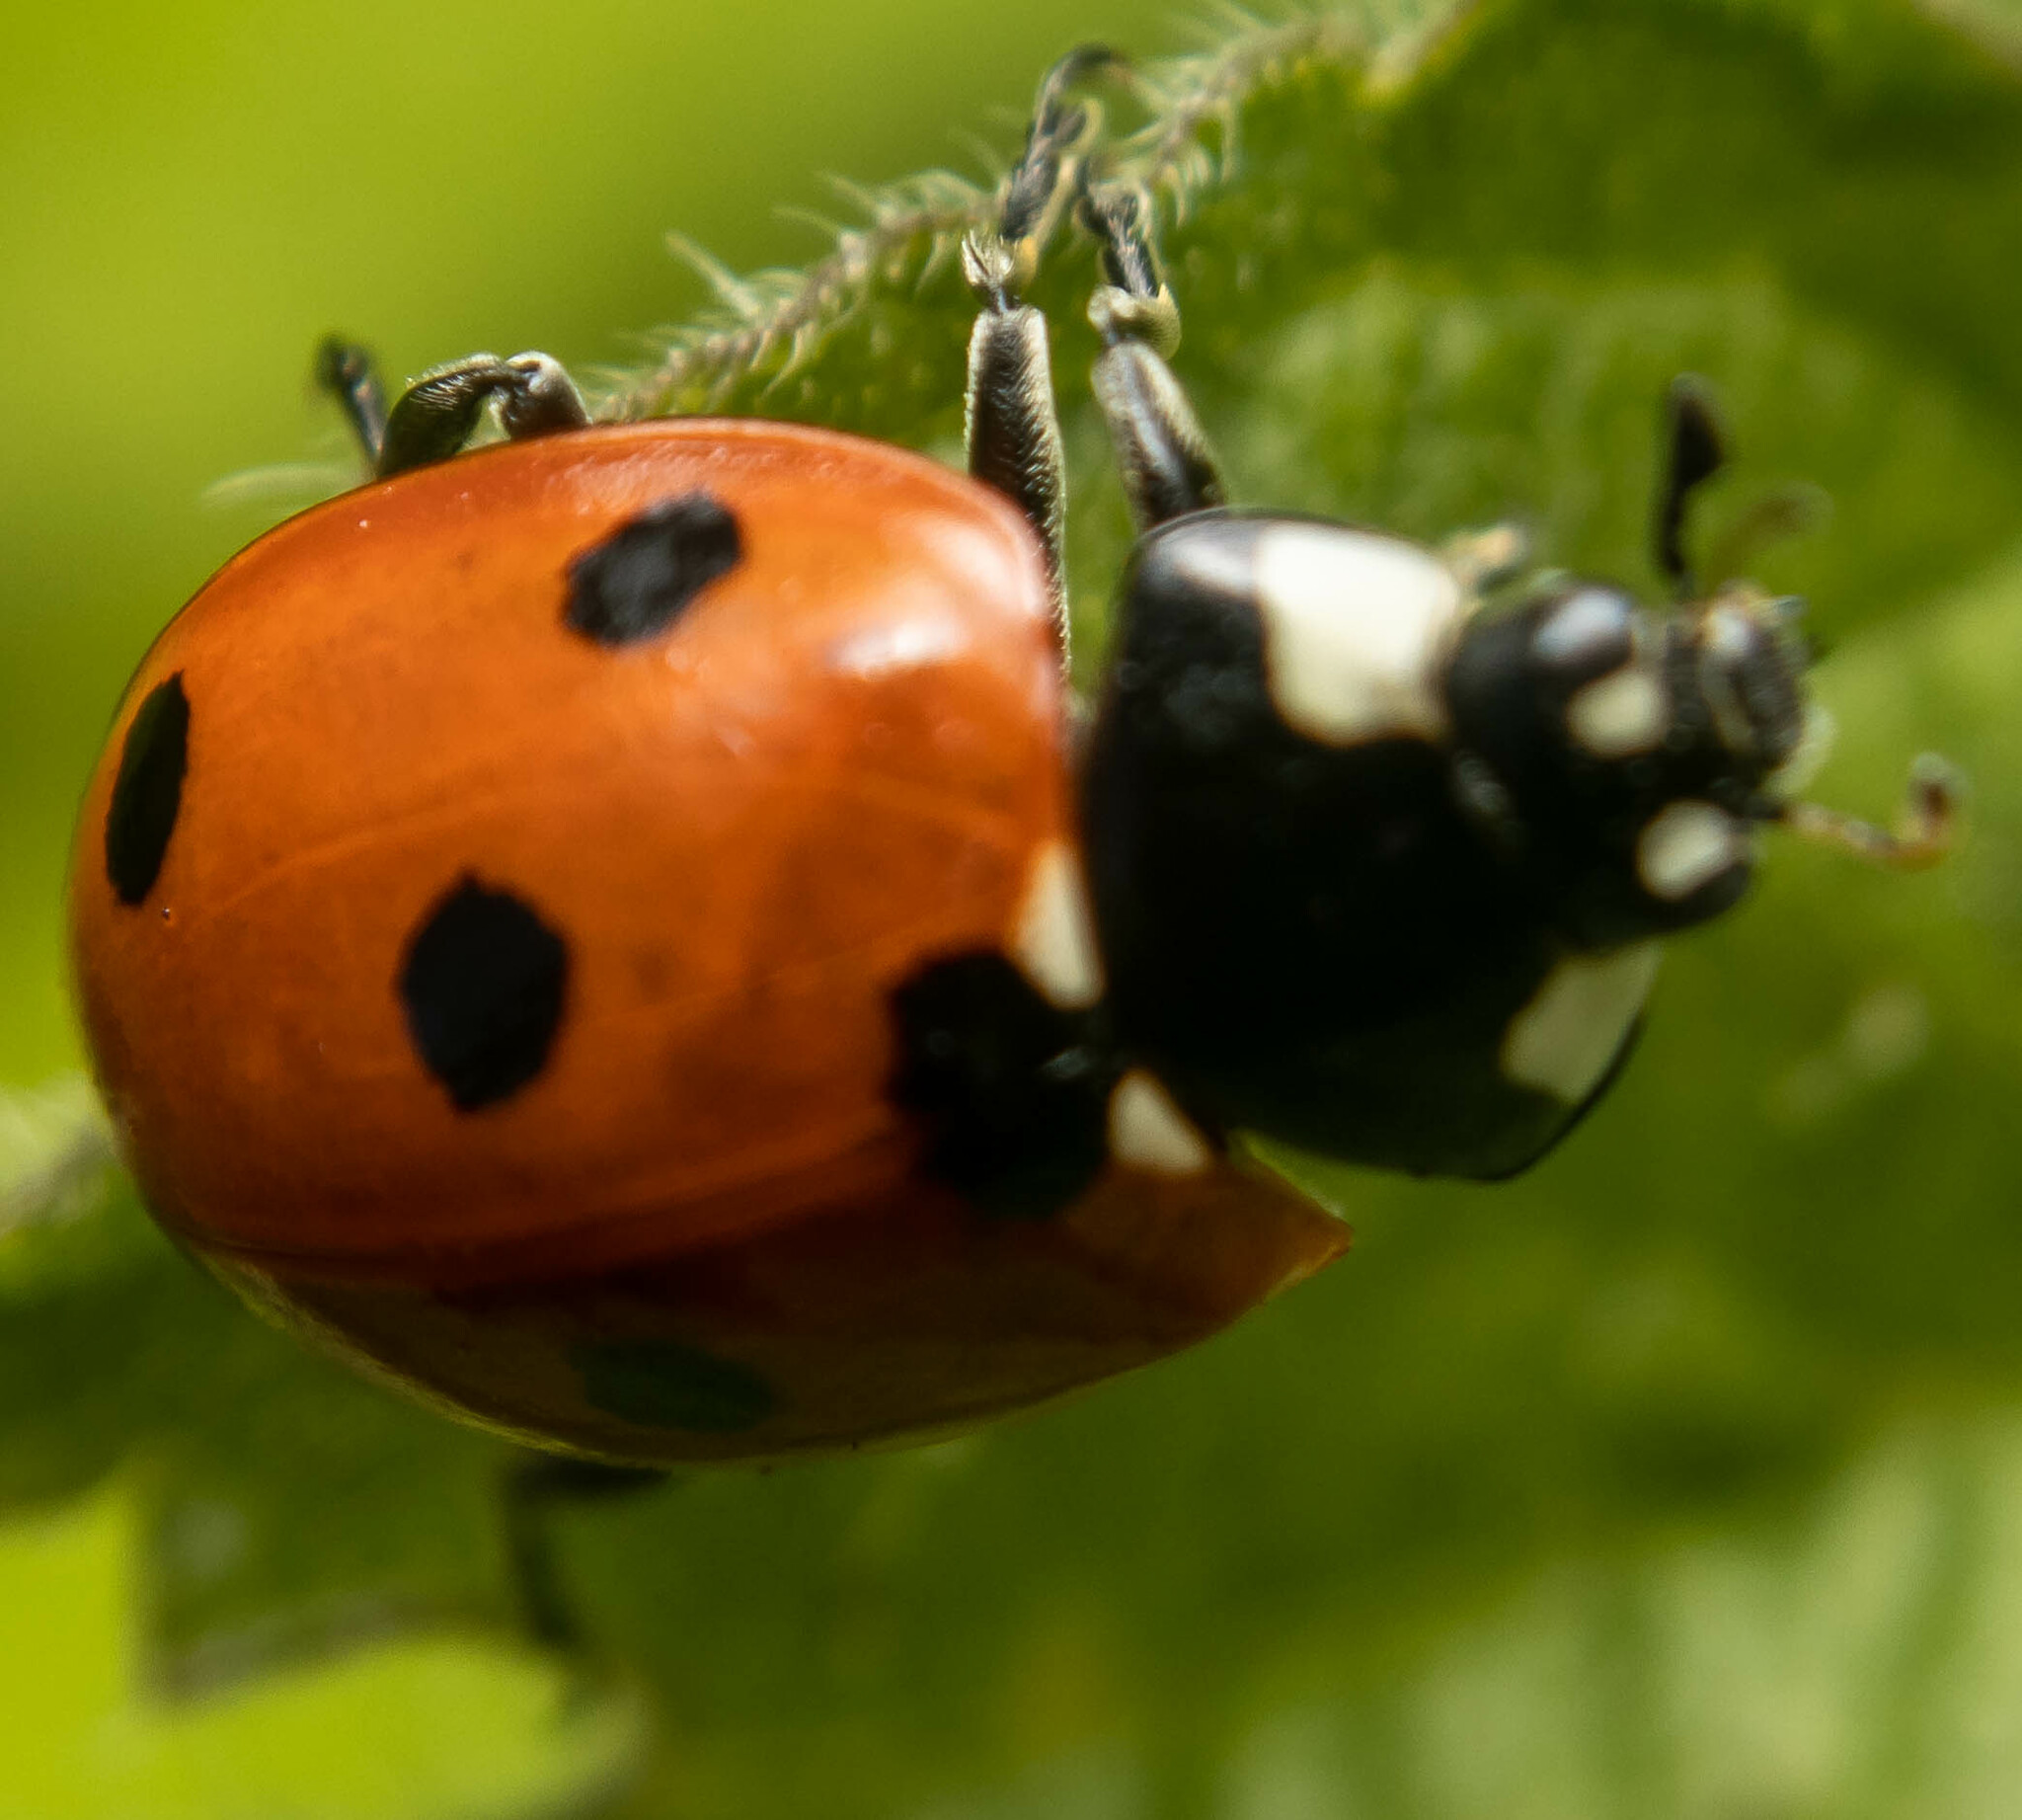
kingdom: Animalia
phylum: Arthropoda
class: Insecta
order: Coleoptera
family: Coccinellidae
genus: Coccinella
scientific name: Coccinella septempunctata
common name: Sevenspotted lady beetle
